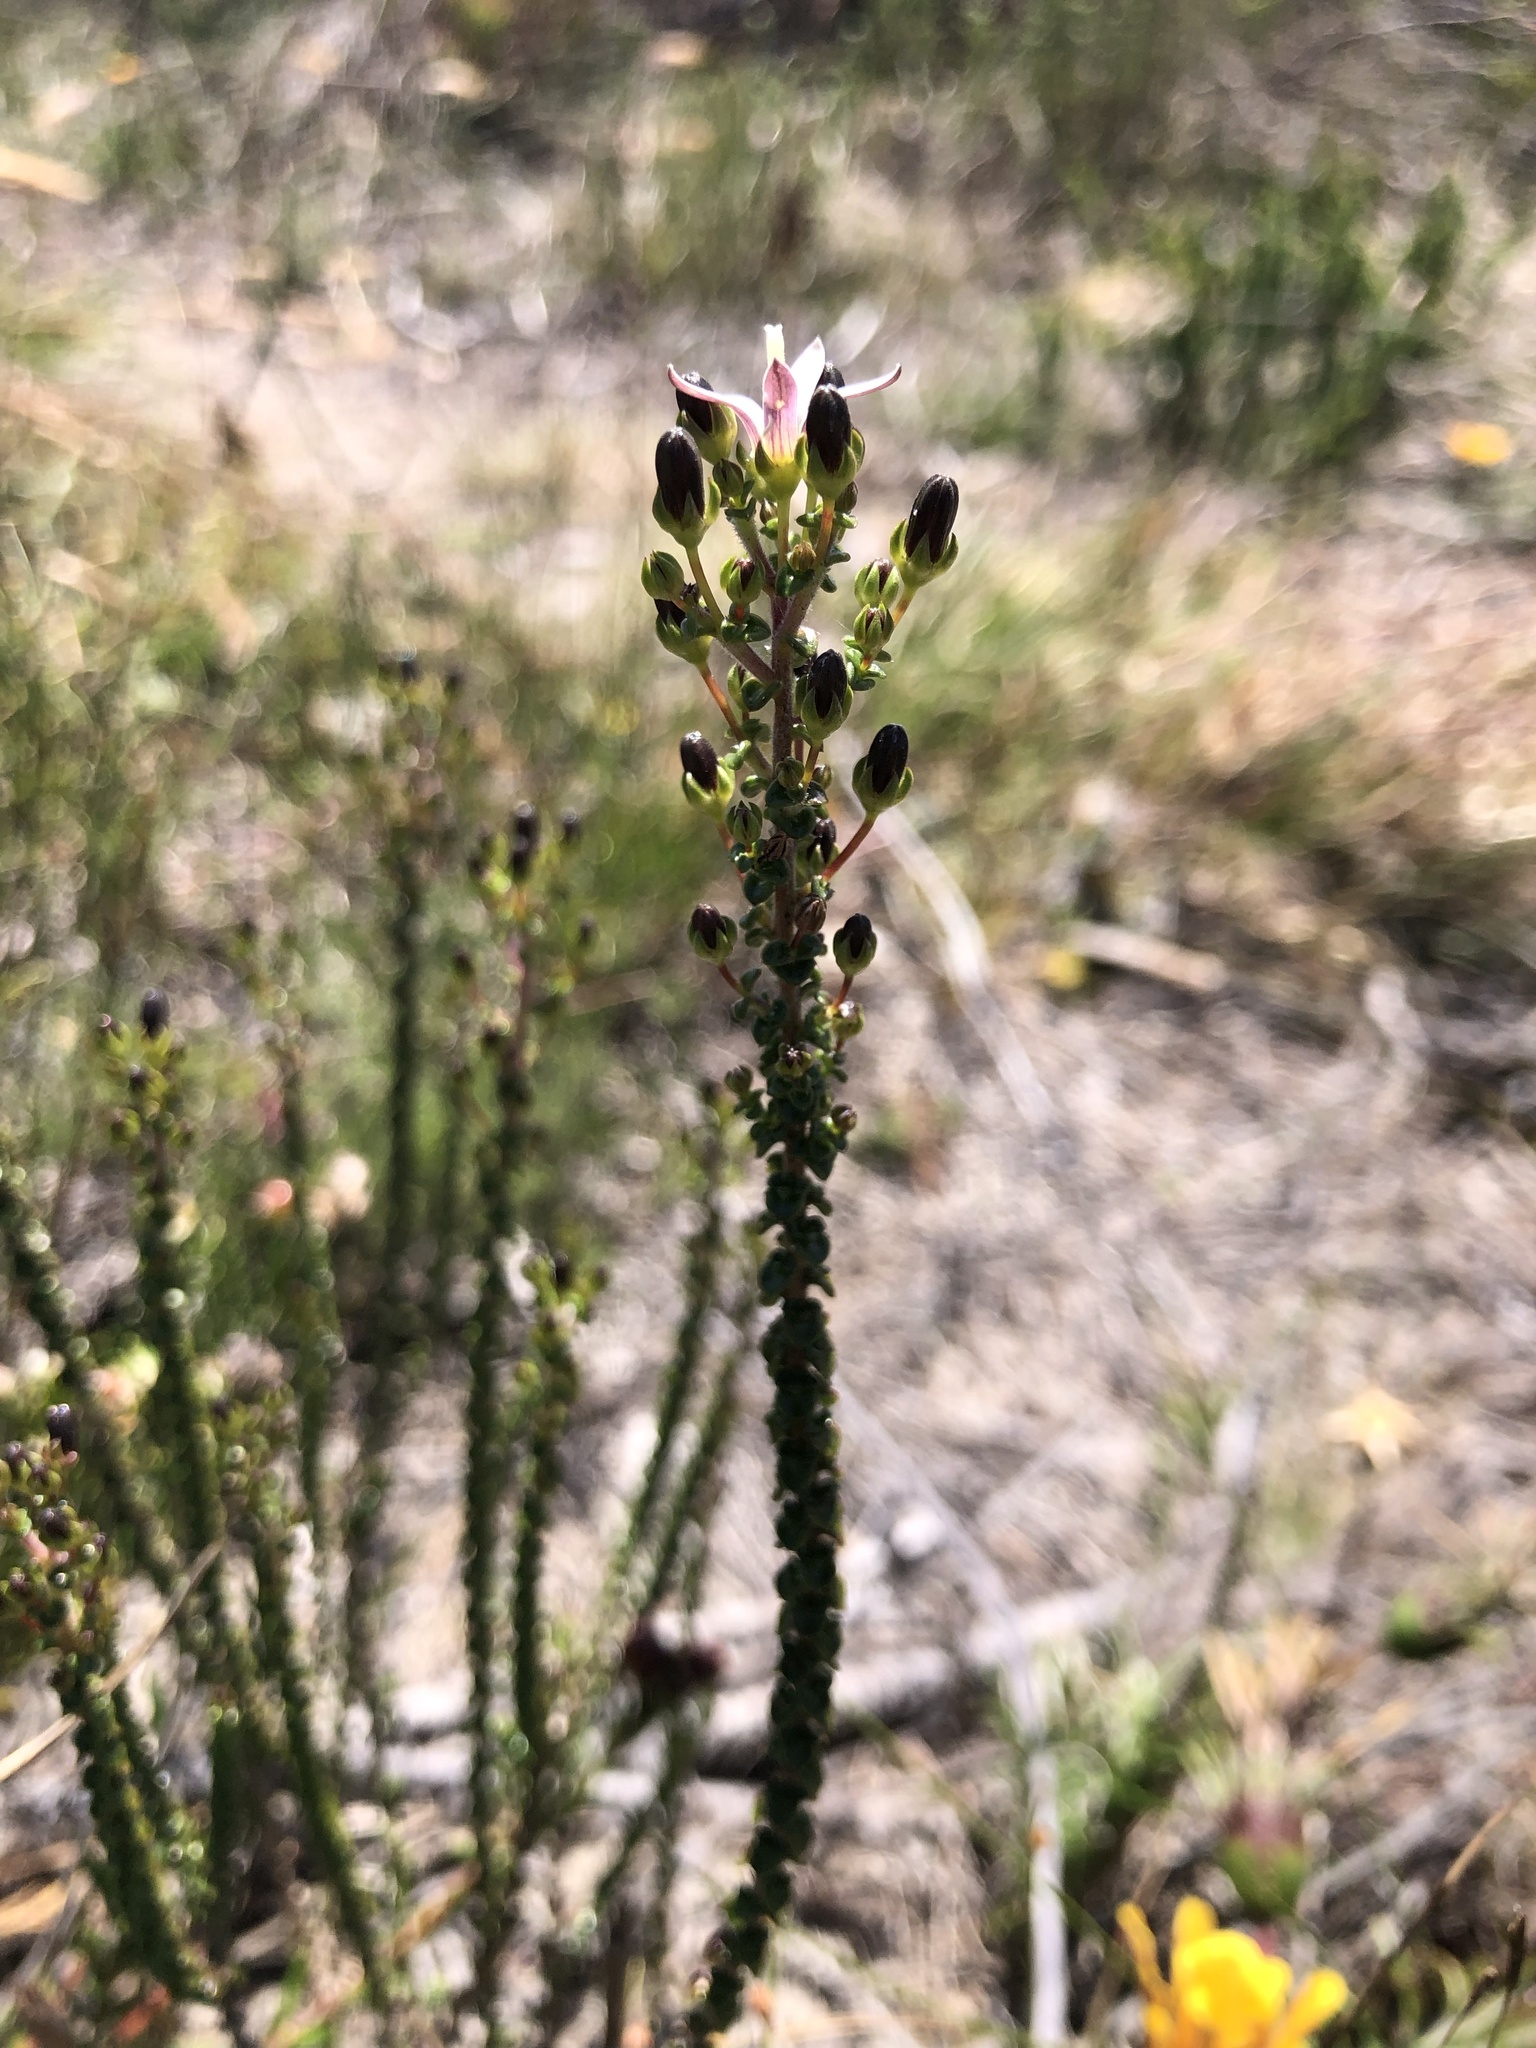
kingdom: Plantae
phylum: Tracheophyta
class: Magnoliopsida
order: Asterales
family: Campanulaceae
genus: Wahlenbergia
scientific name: Wahlenbergia tenella
